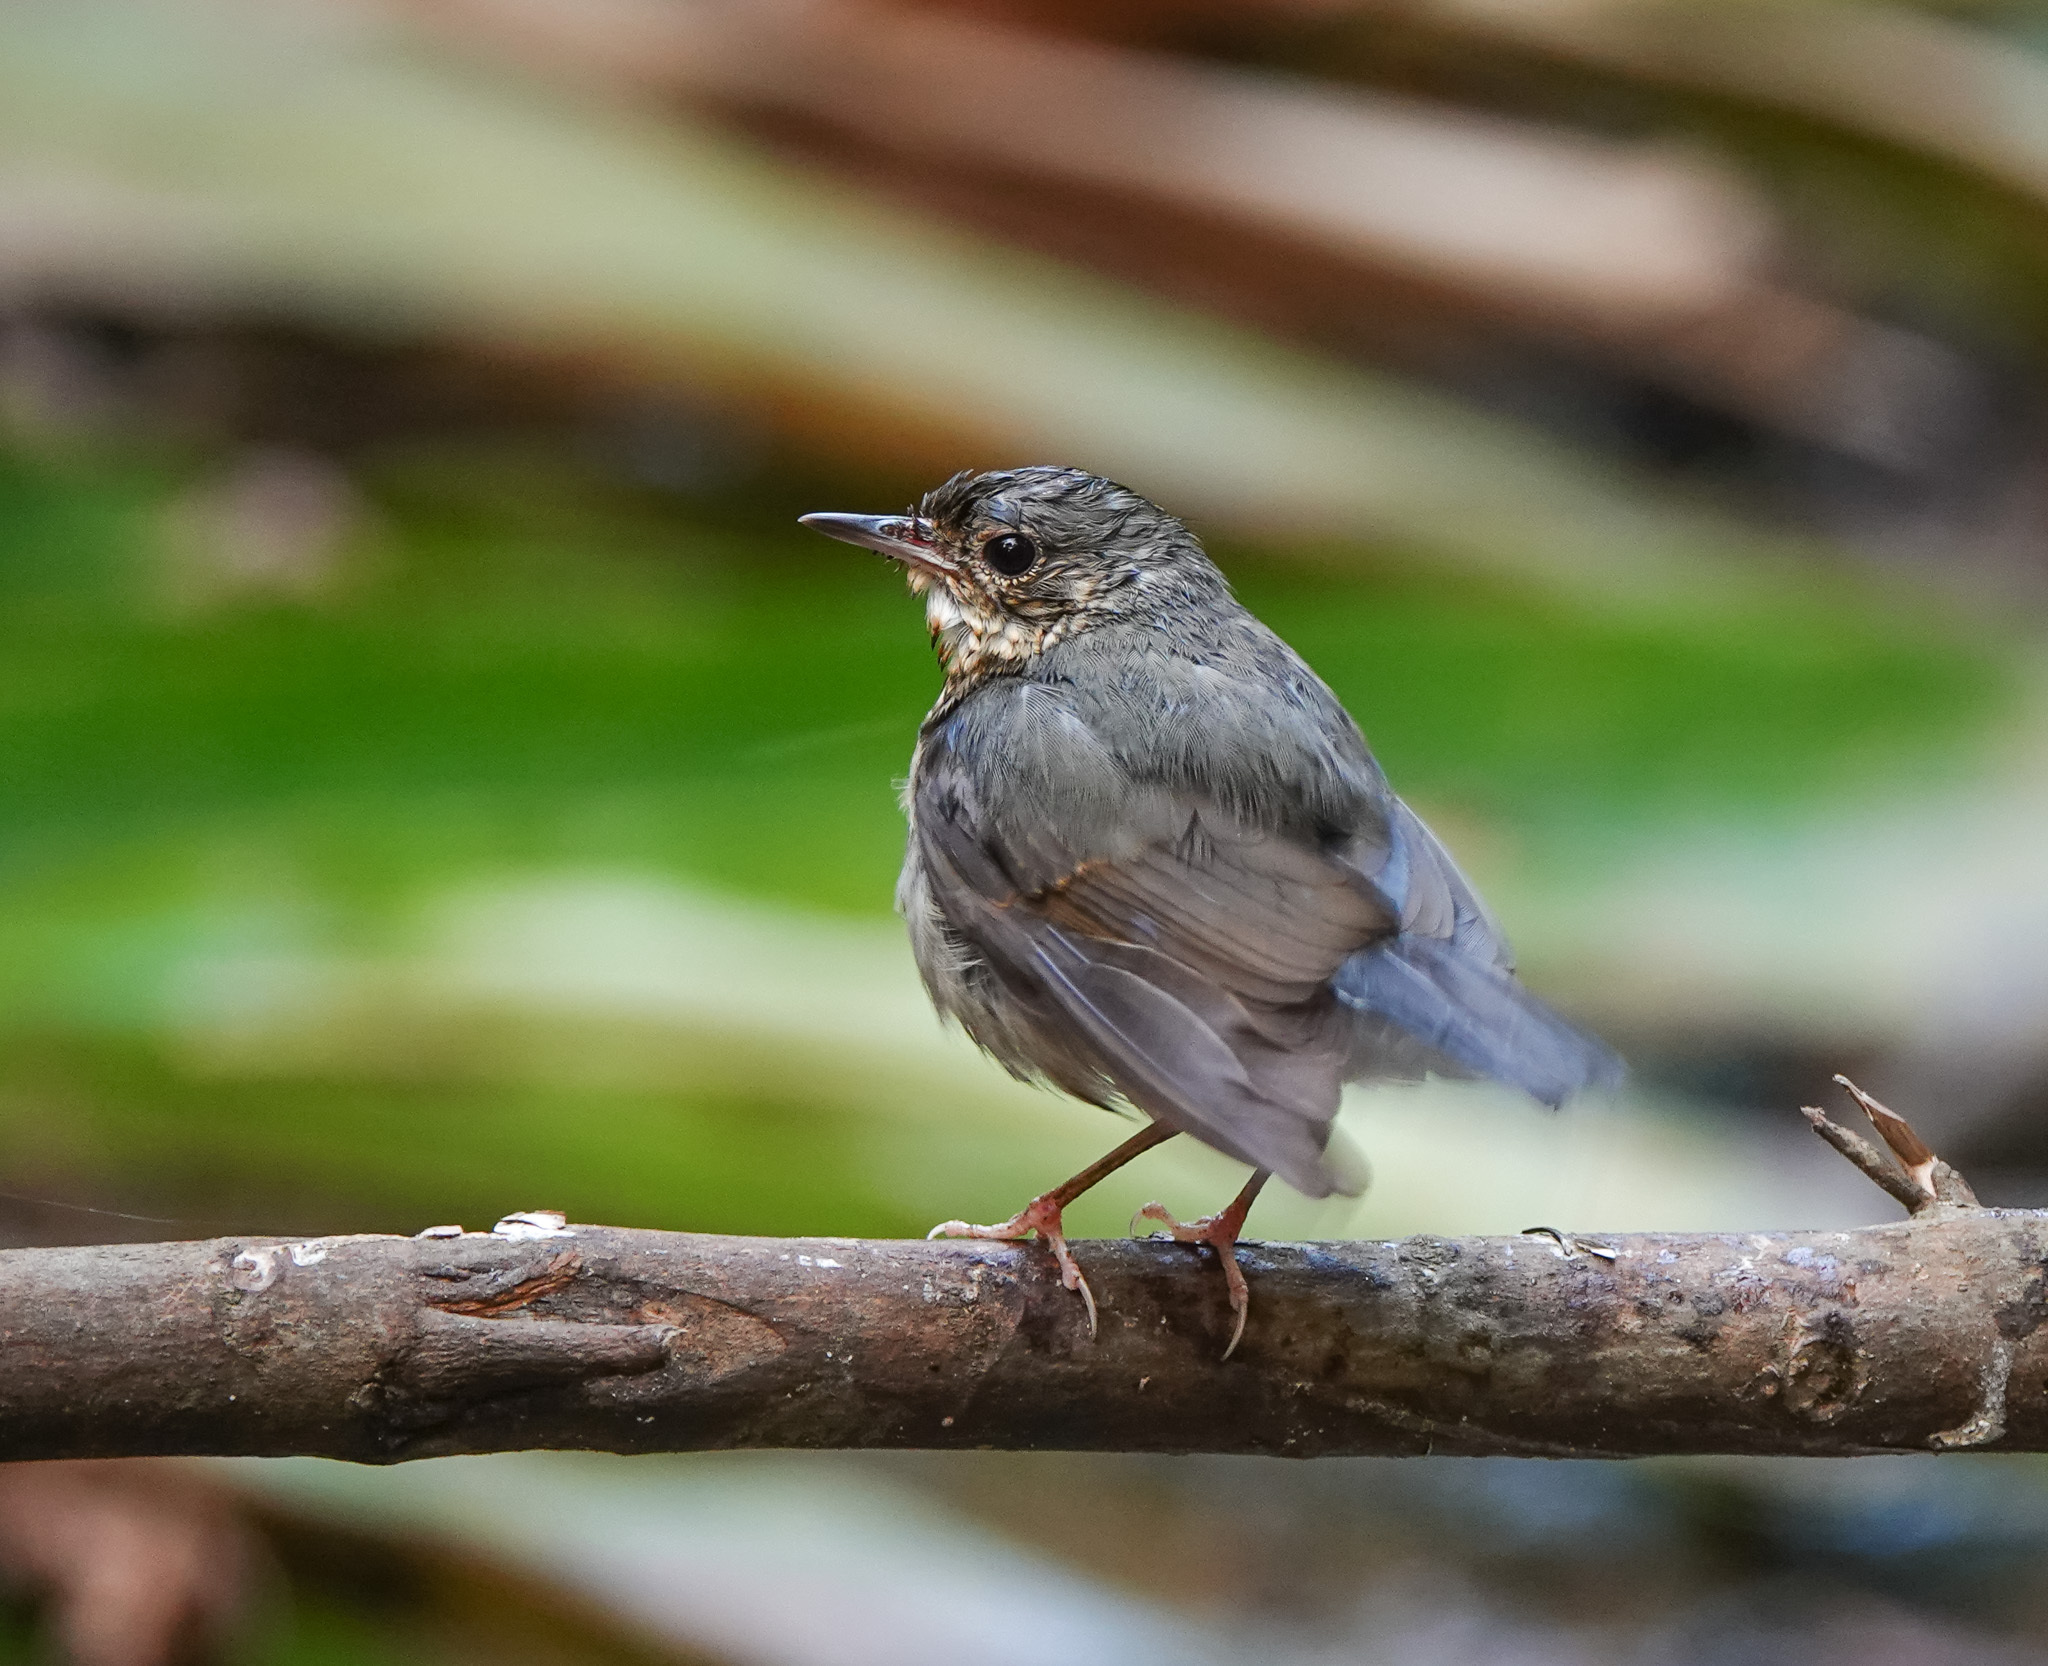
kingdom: Animalia
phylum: Chordata
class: Aves
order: Passeriformes
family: Muscicapidae
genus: Luscinia
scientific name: Luscinia cyane
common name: Siberian blue robin
